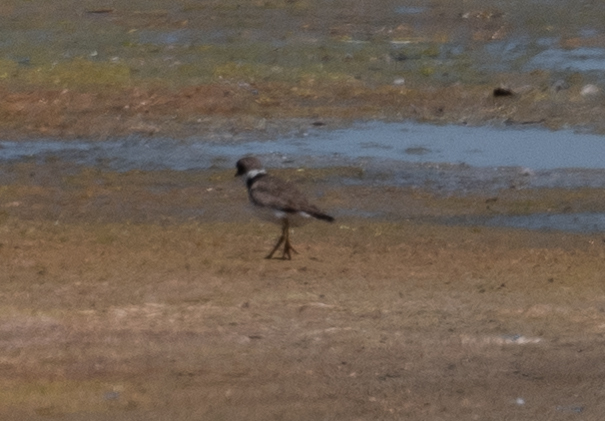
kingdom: Animalia
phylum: Chordata
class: Aves
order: Charadriiformes
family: Charadriidae
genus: Charadrius
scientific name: Charadrius semipalmatus
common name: Semipalmated plover
